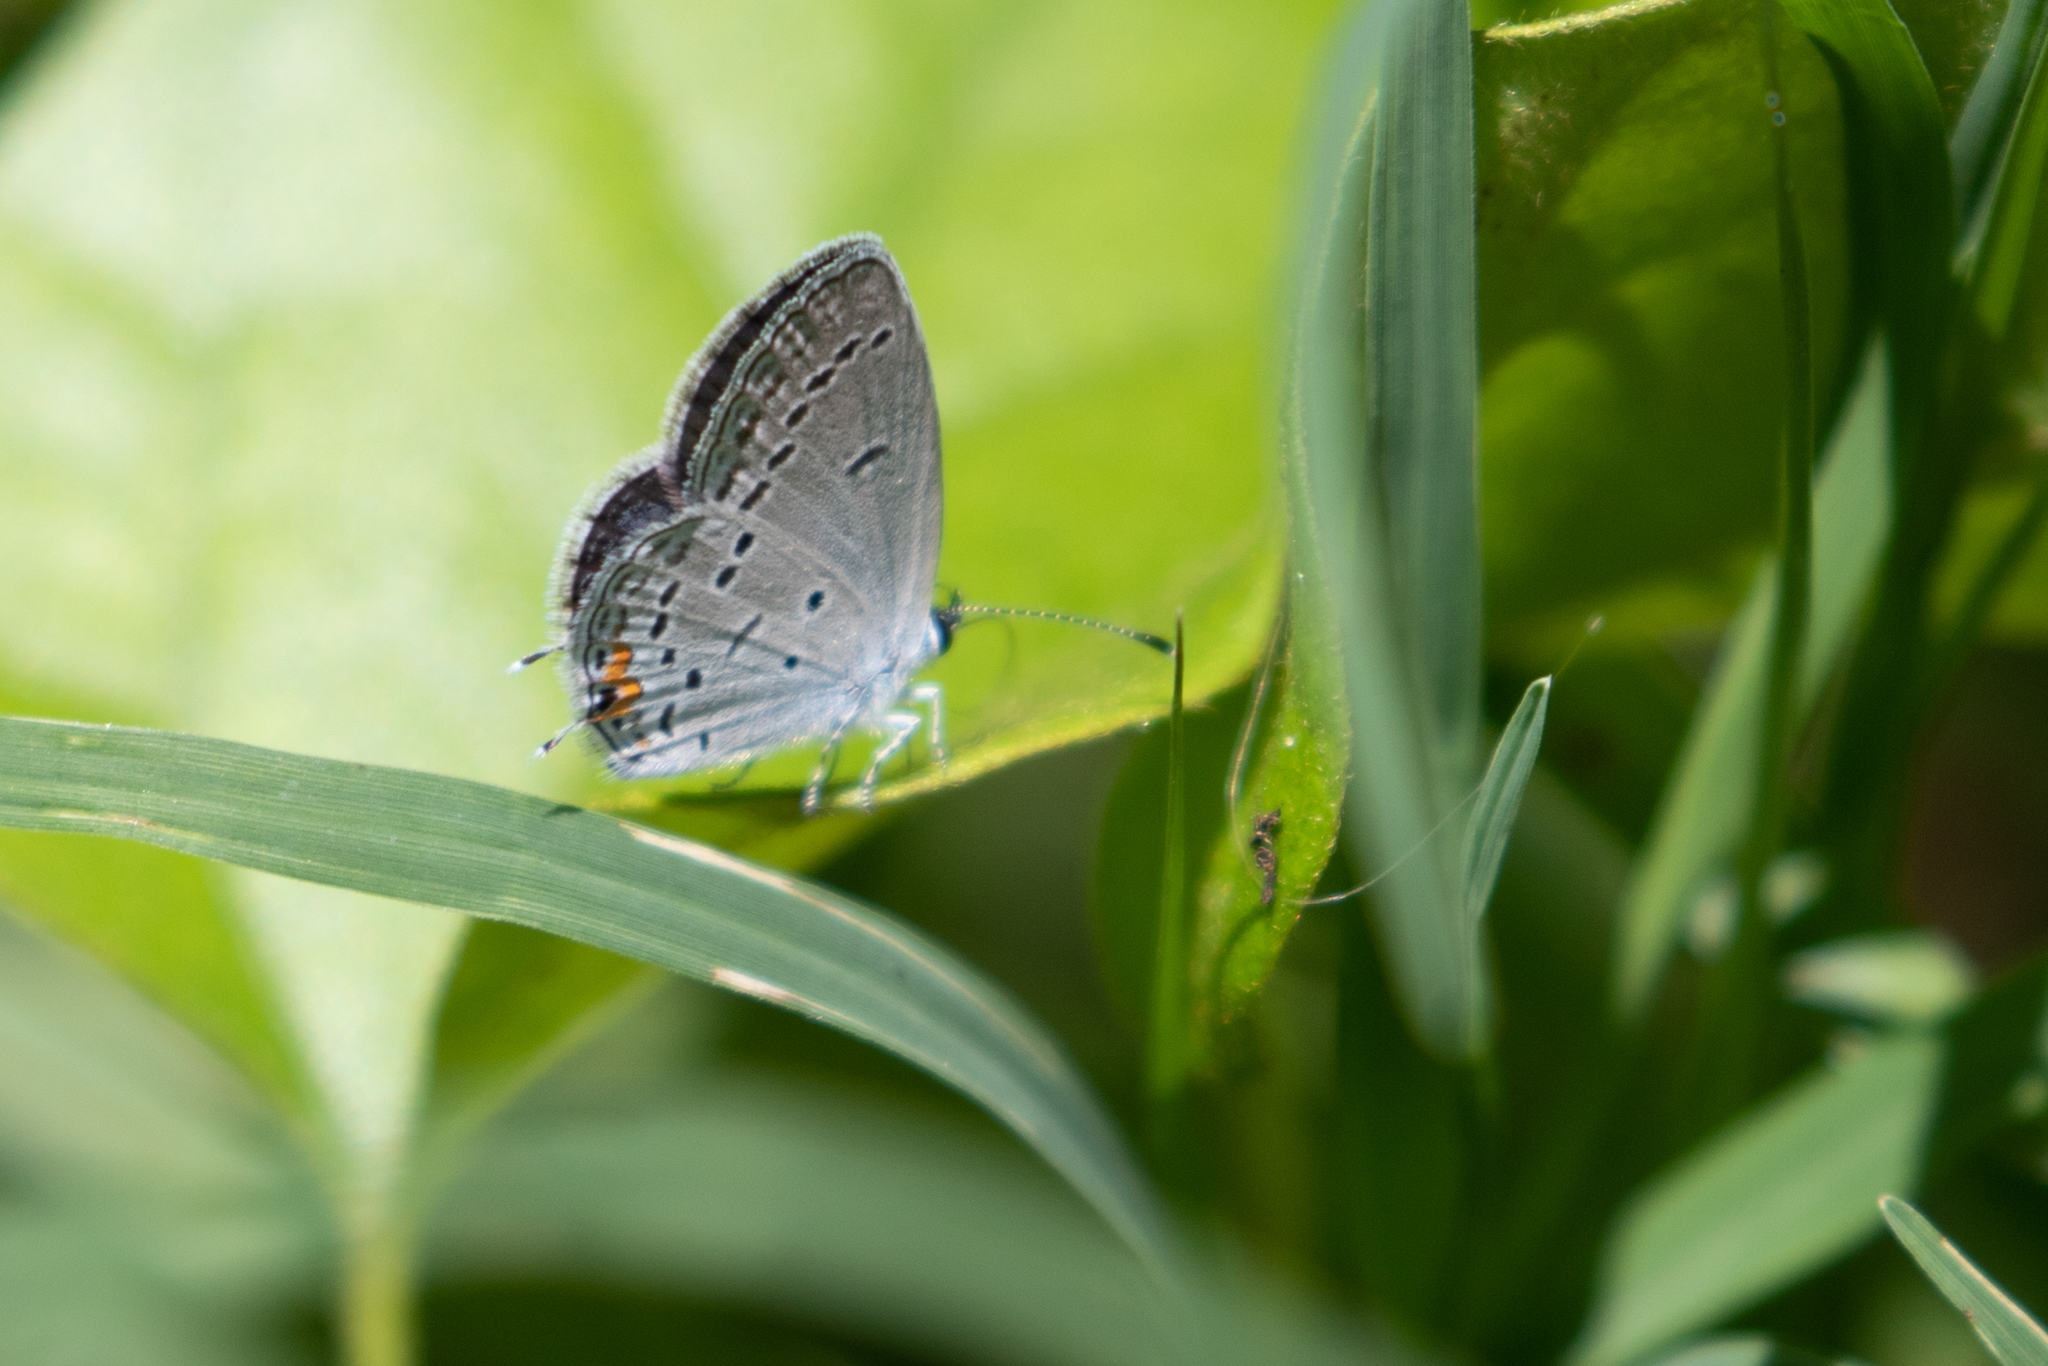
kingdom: Animalia
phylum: Arthropoda
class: Insecta
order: Lepidoptera
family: Lycaenidae
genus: Elkalyce
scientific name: Elkalyce comyntas
